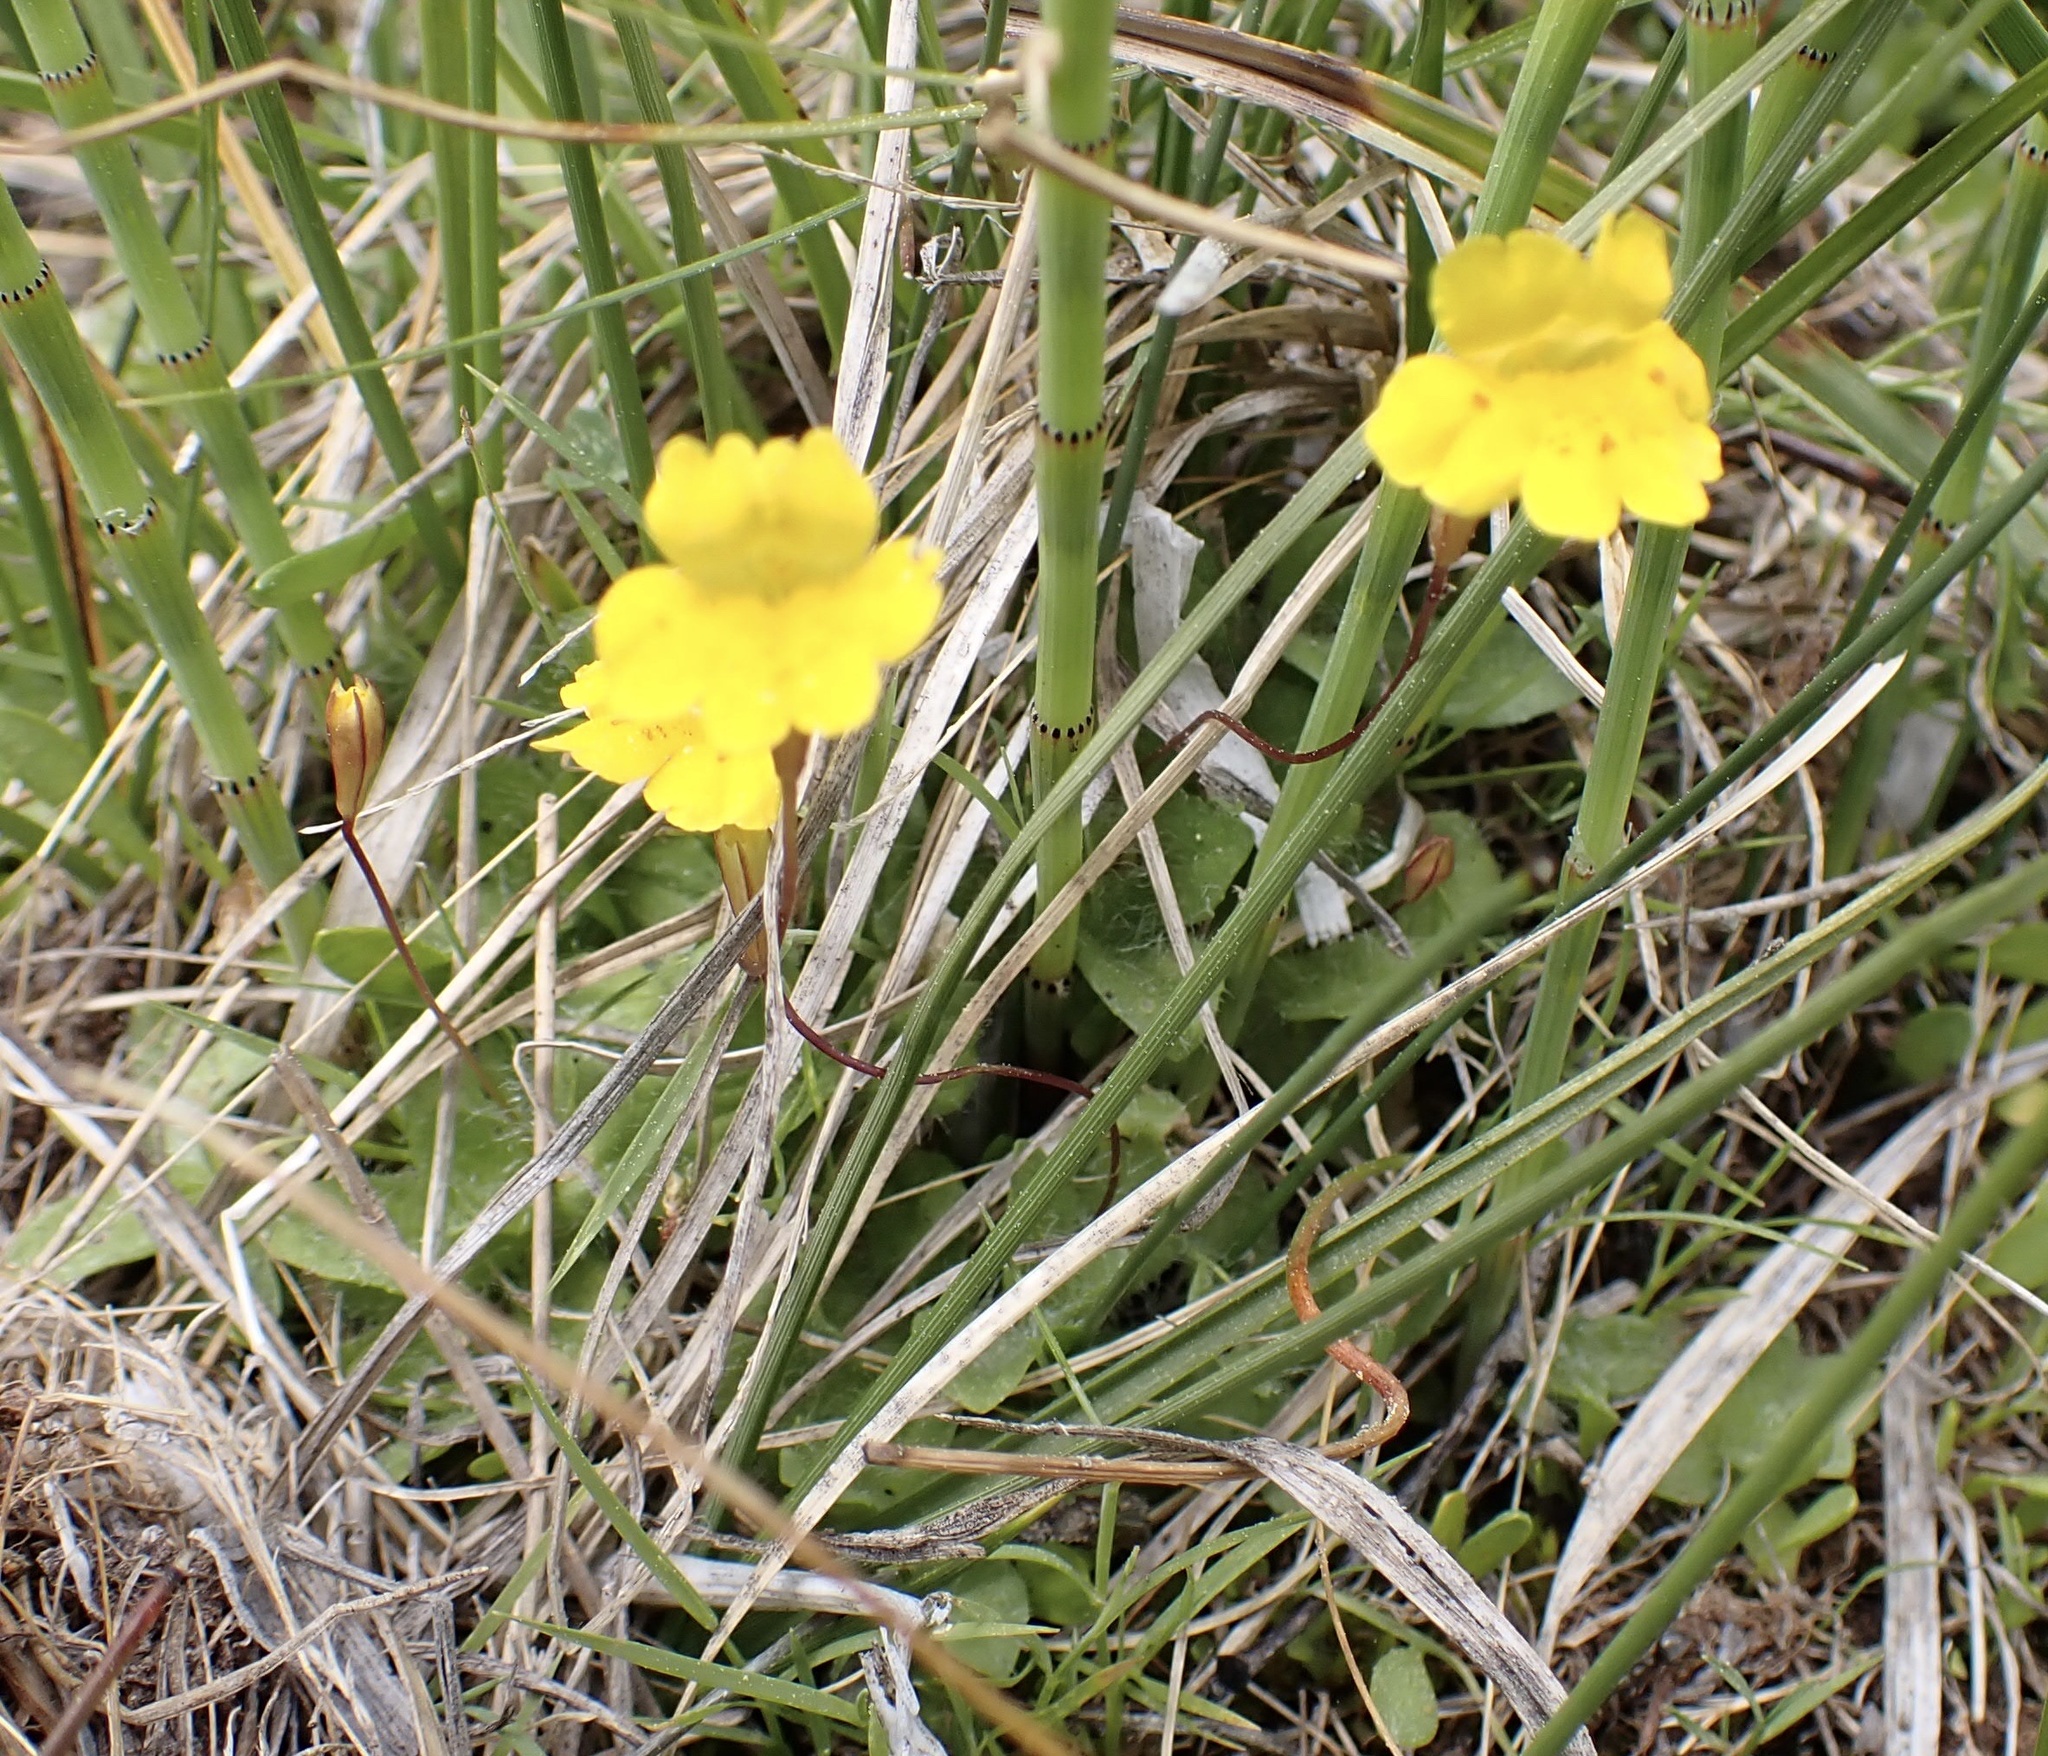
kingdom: Plantae
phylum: Tracheophyta
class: Magnoliopsida
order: Lamiales
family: Phrymaceae
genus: Erythranthe
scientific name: Erythranthe primuloides
